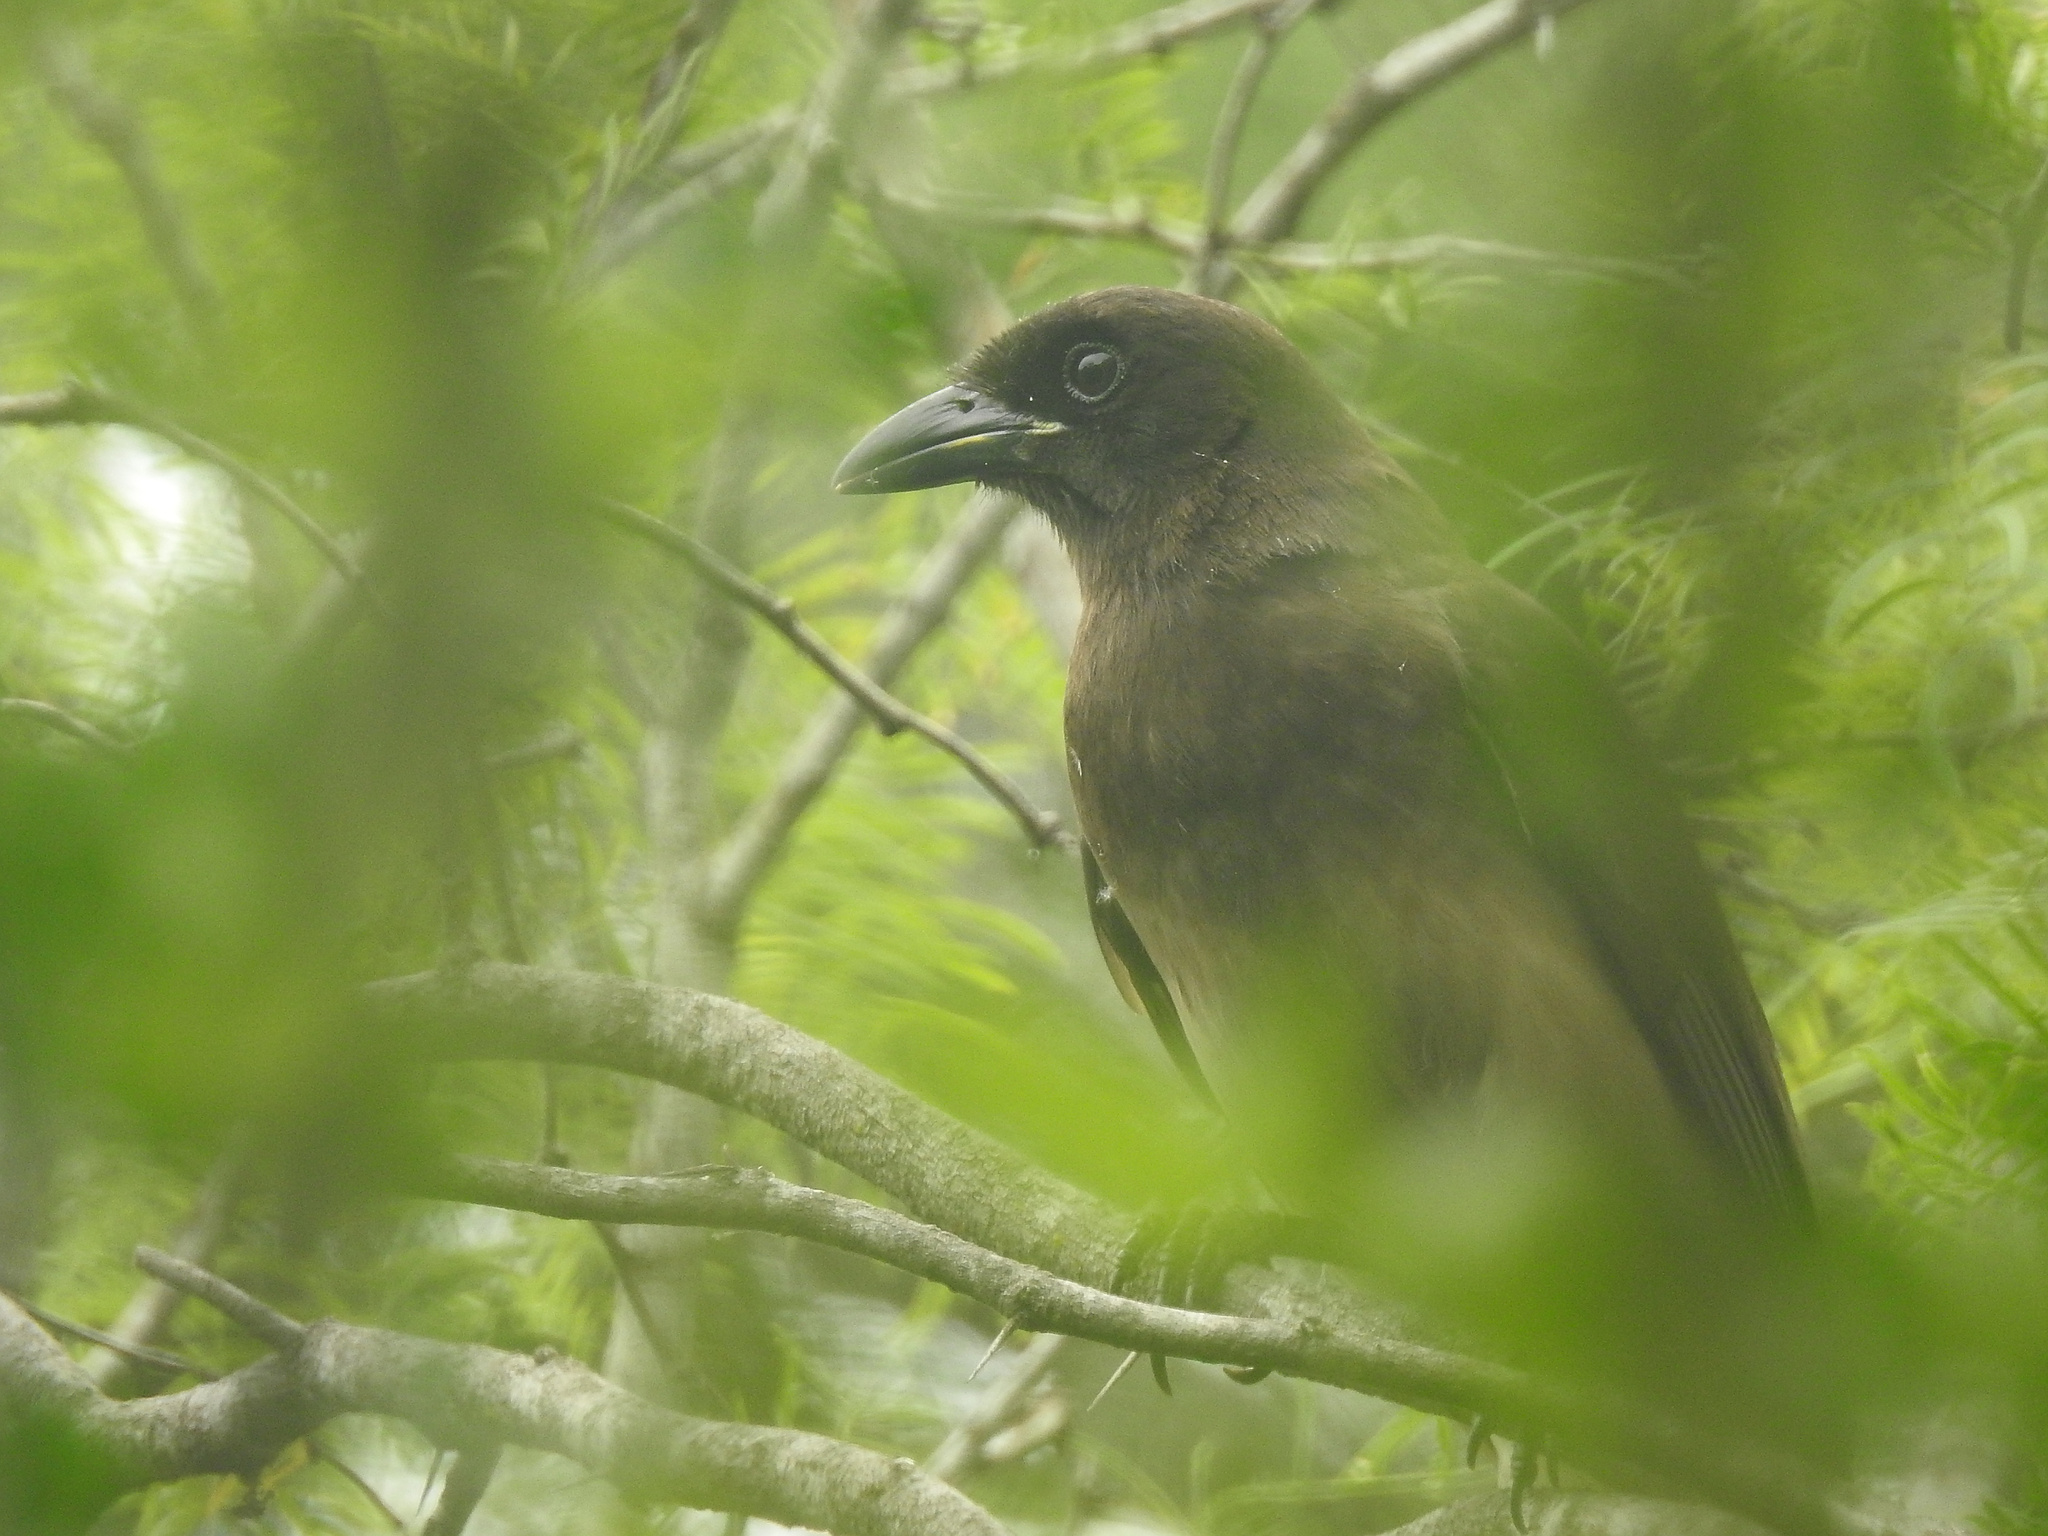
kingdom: Animalia
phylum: Chordata
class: Aves
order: Passeriformes
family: Corvidae
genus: Psilorhinus
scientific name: Psilorhinus morio
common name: Brown jay
